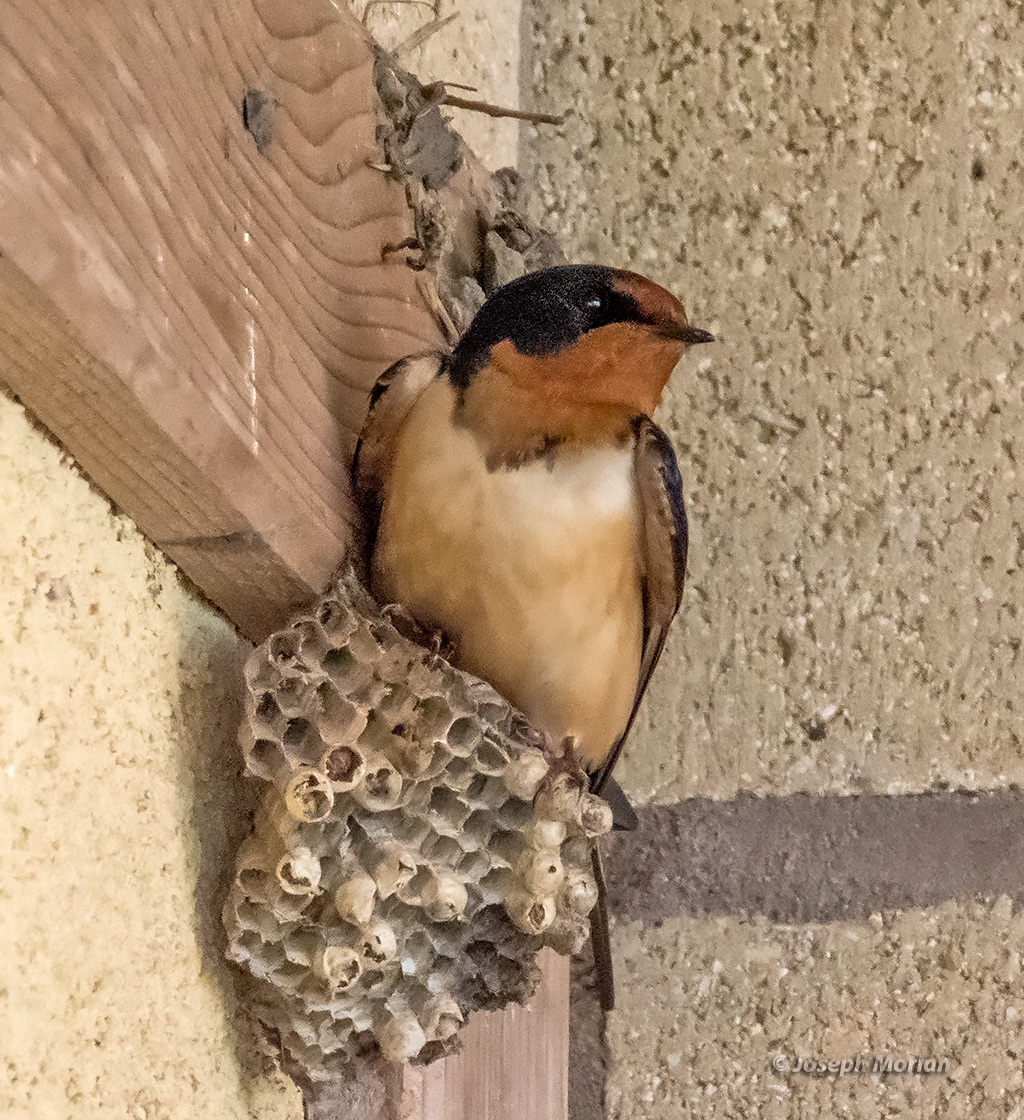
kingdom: Animalia
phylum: Chordata
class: Aves
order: Passeriformes
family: Hirundinidae
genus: Hirundo
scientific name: Hirundo rustica
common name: Barn swallow
